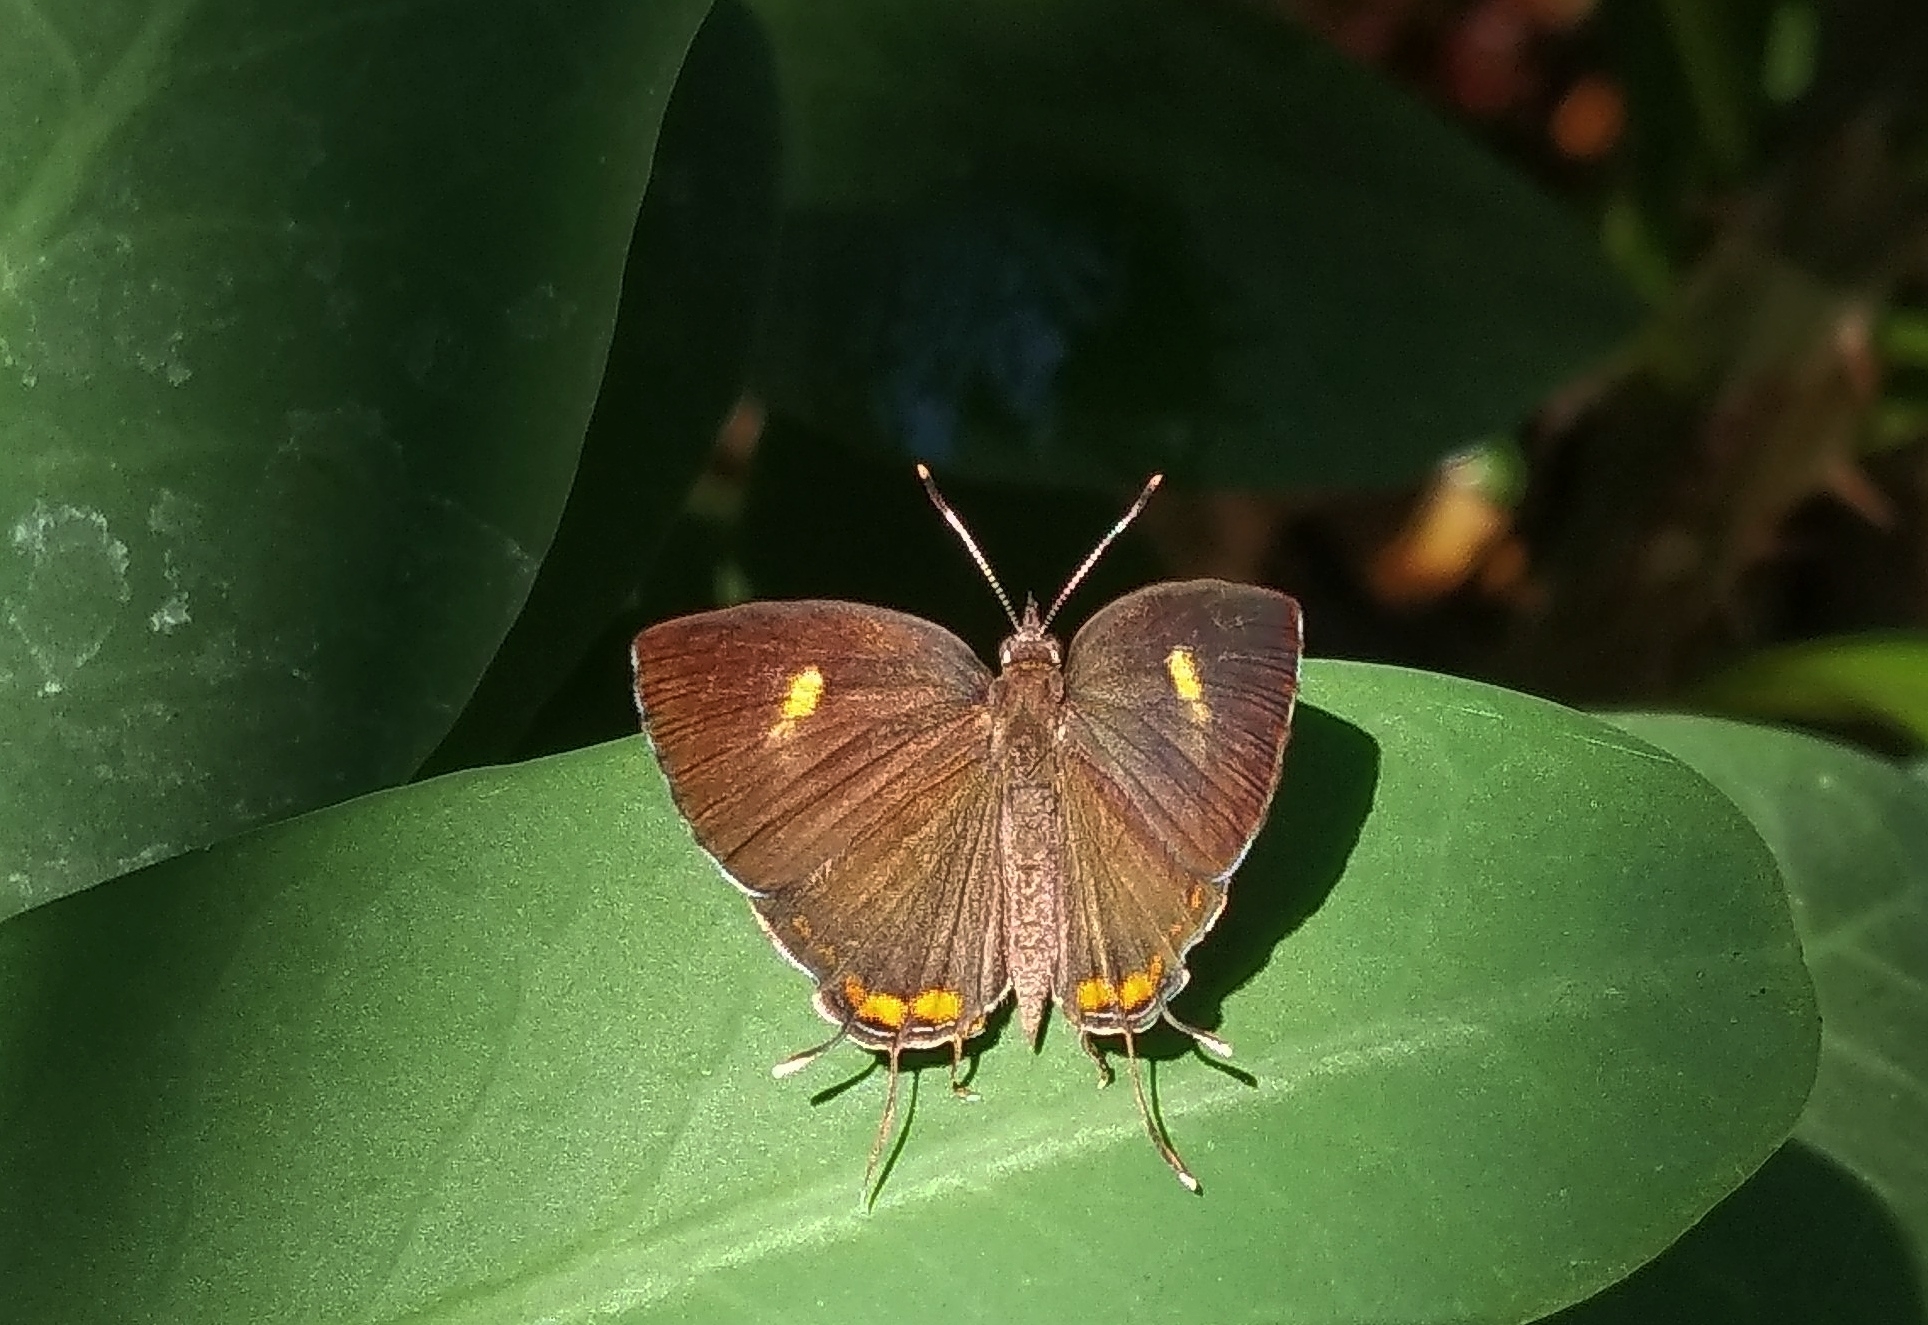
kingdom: Animalia
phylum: Arthropoda
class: Insecta
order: Lepidoptera
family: Lycaenidae
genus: Rathinda
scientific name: Rathinda amor
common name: Monkey puzzle
